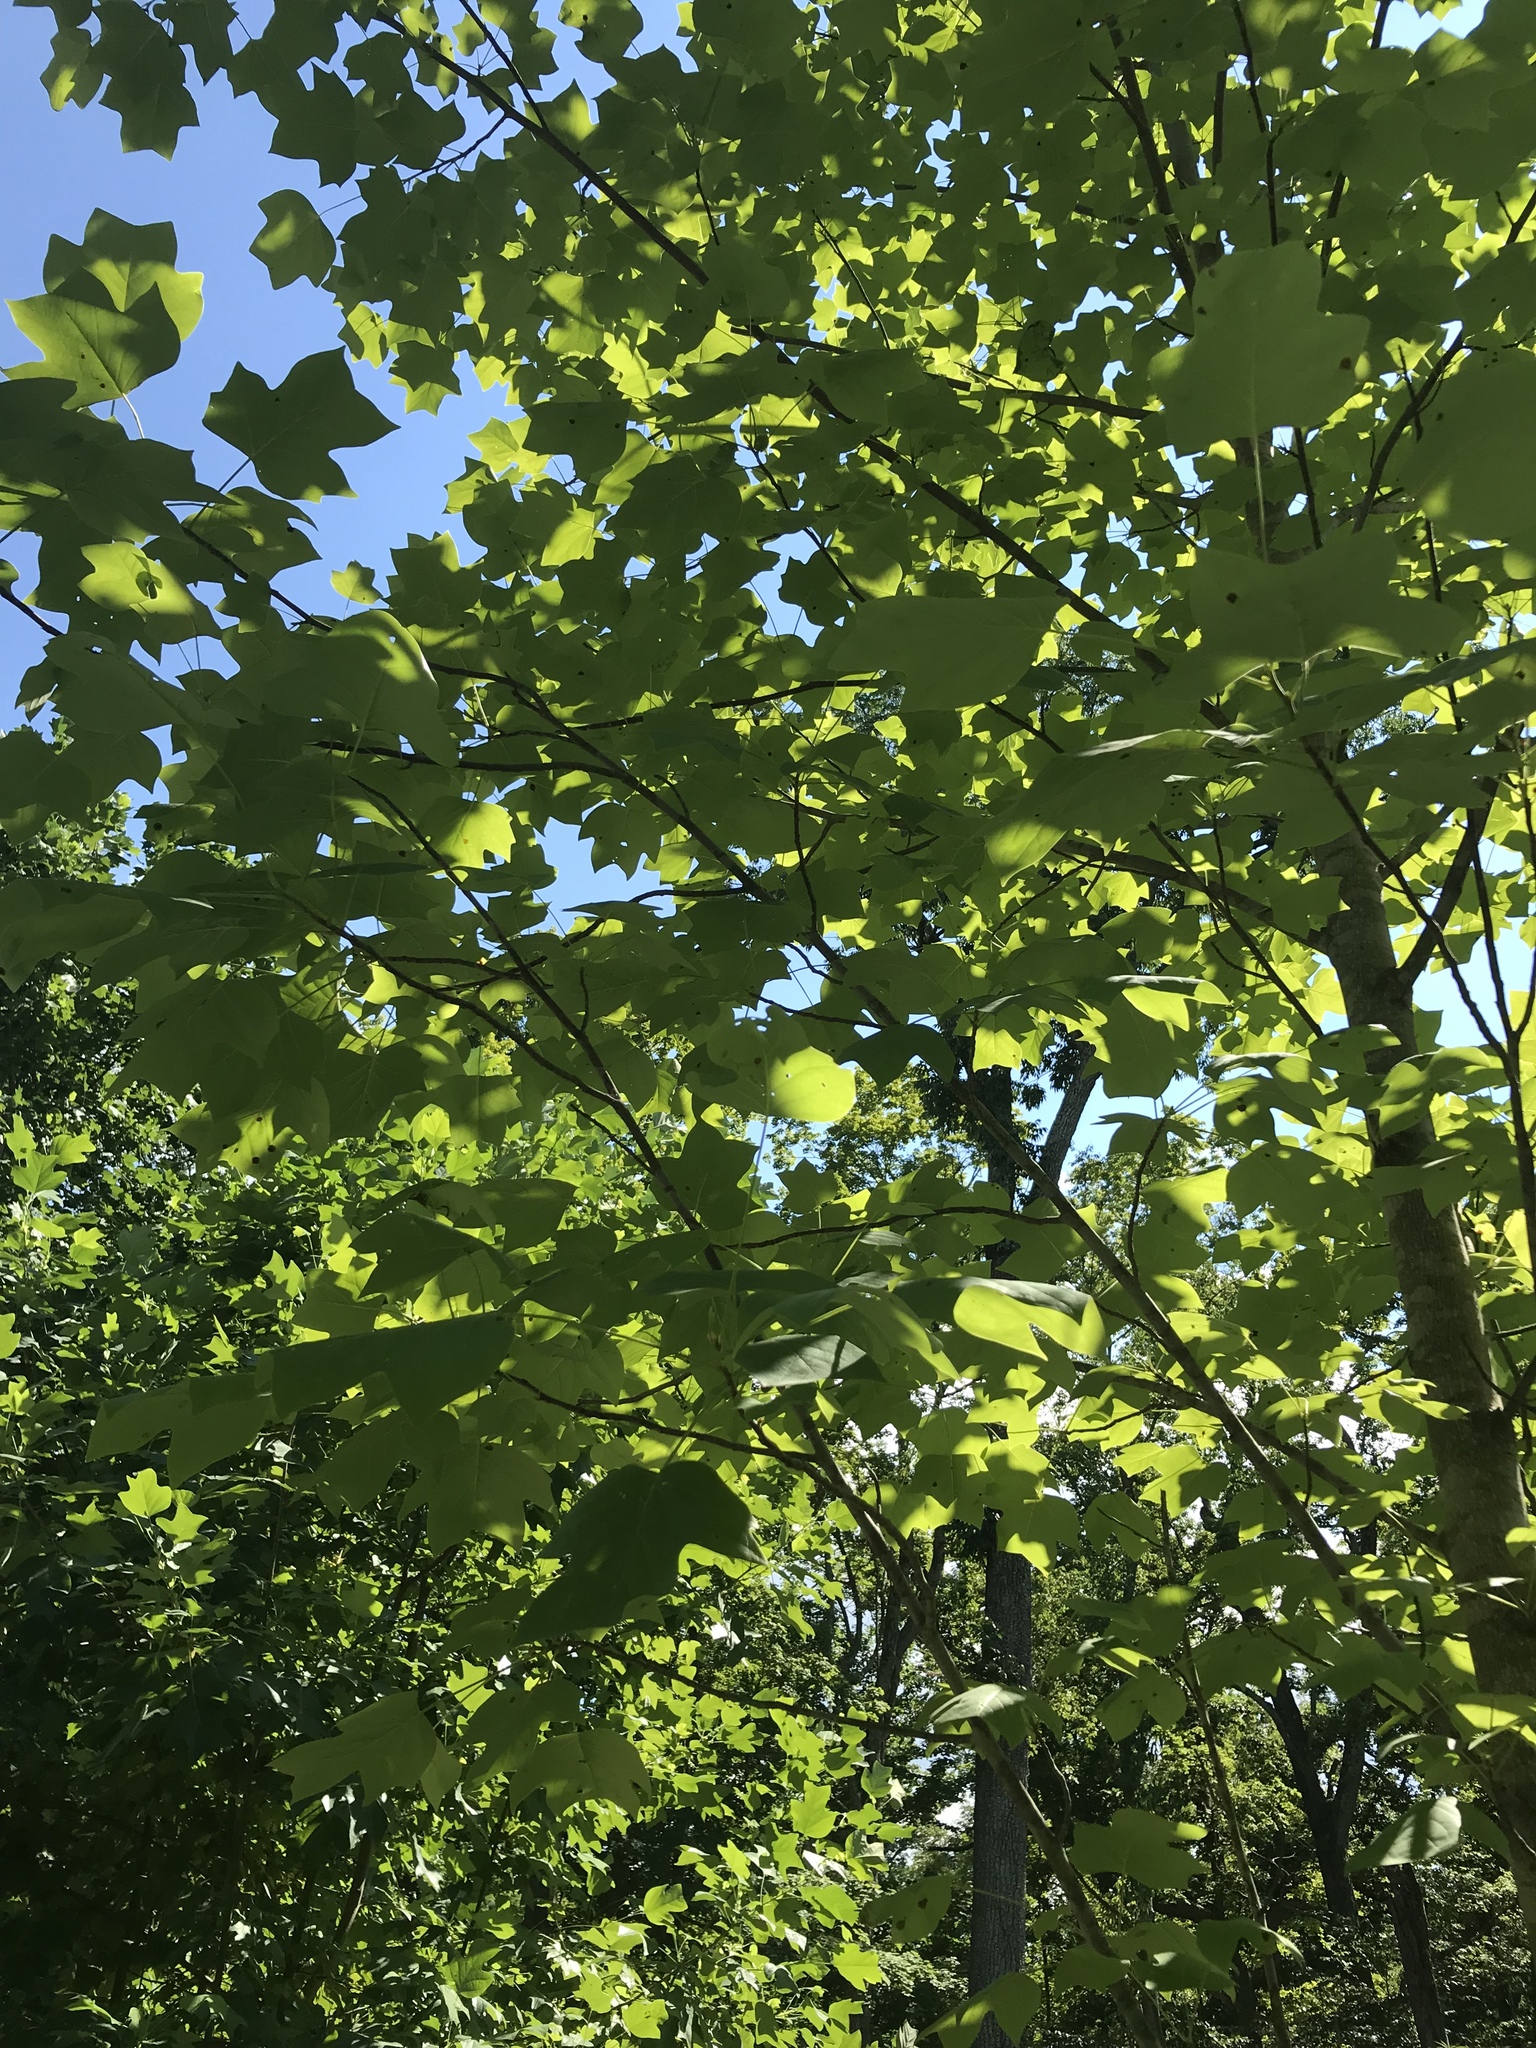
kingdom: Plantae
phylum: Tracheophyta
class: Magnoliopsida
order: Magnoliales
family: Magnoliaceae
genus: Liriodendron
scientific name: Liriodendron tulipifera
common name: Tulip tree
